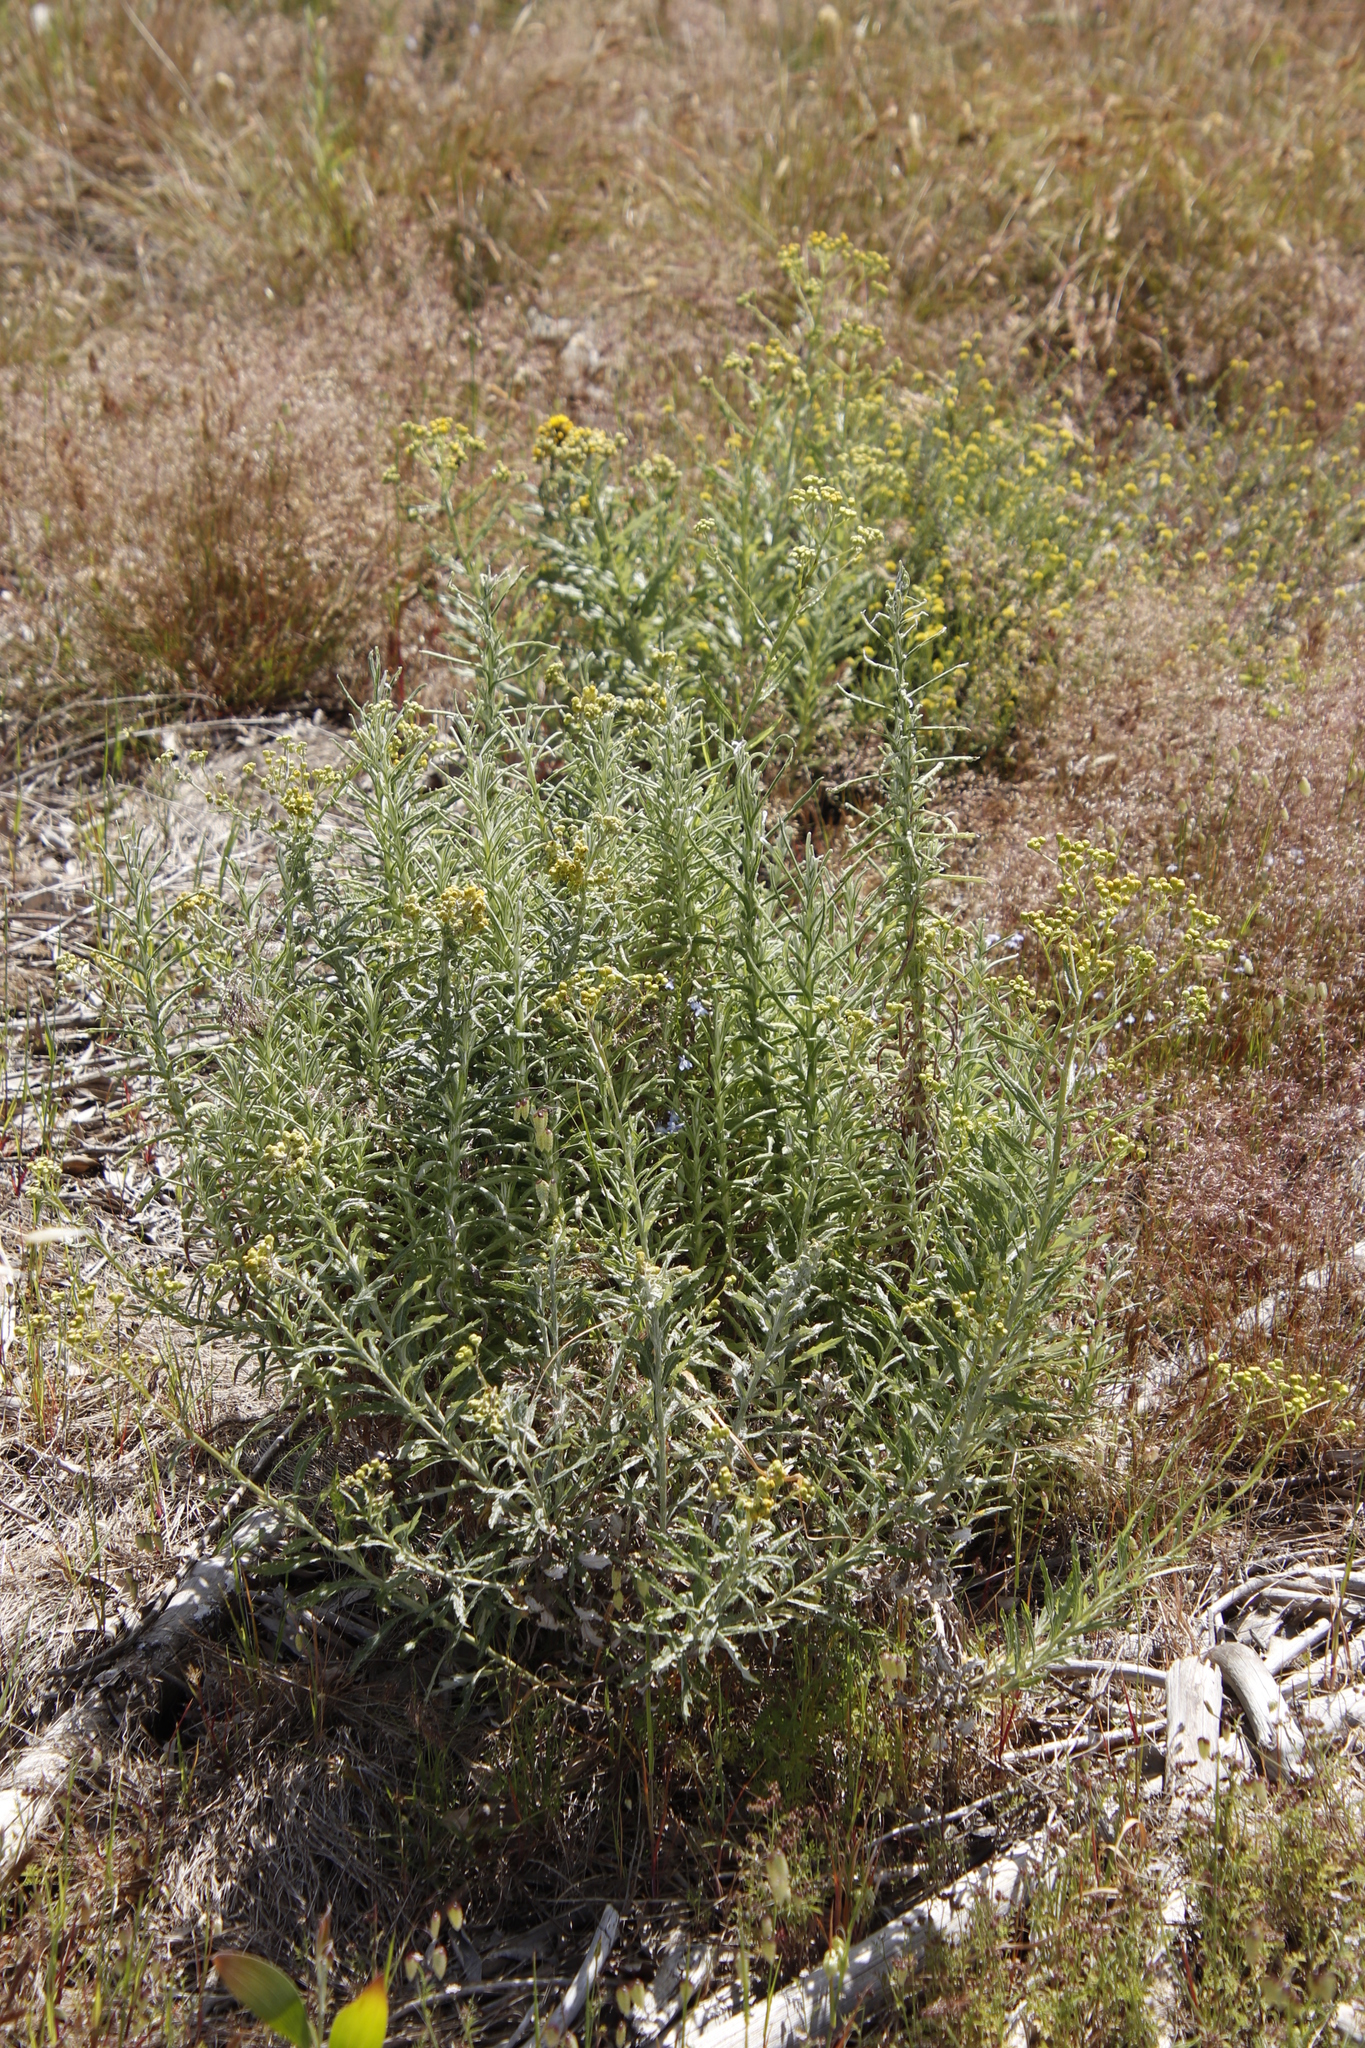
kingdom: Plantae
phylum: Tracheophyta
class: Magnoliopsida
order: Asterales
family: Asteraceae
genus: Senecio
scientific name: Senecio pterophorus
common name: Shoddy ragwort
